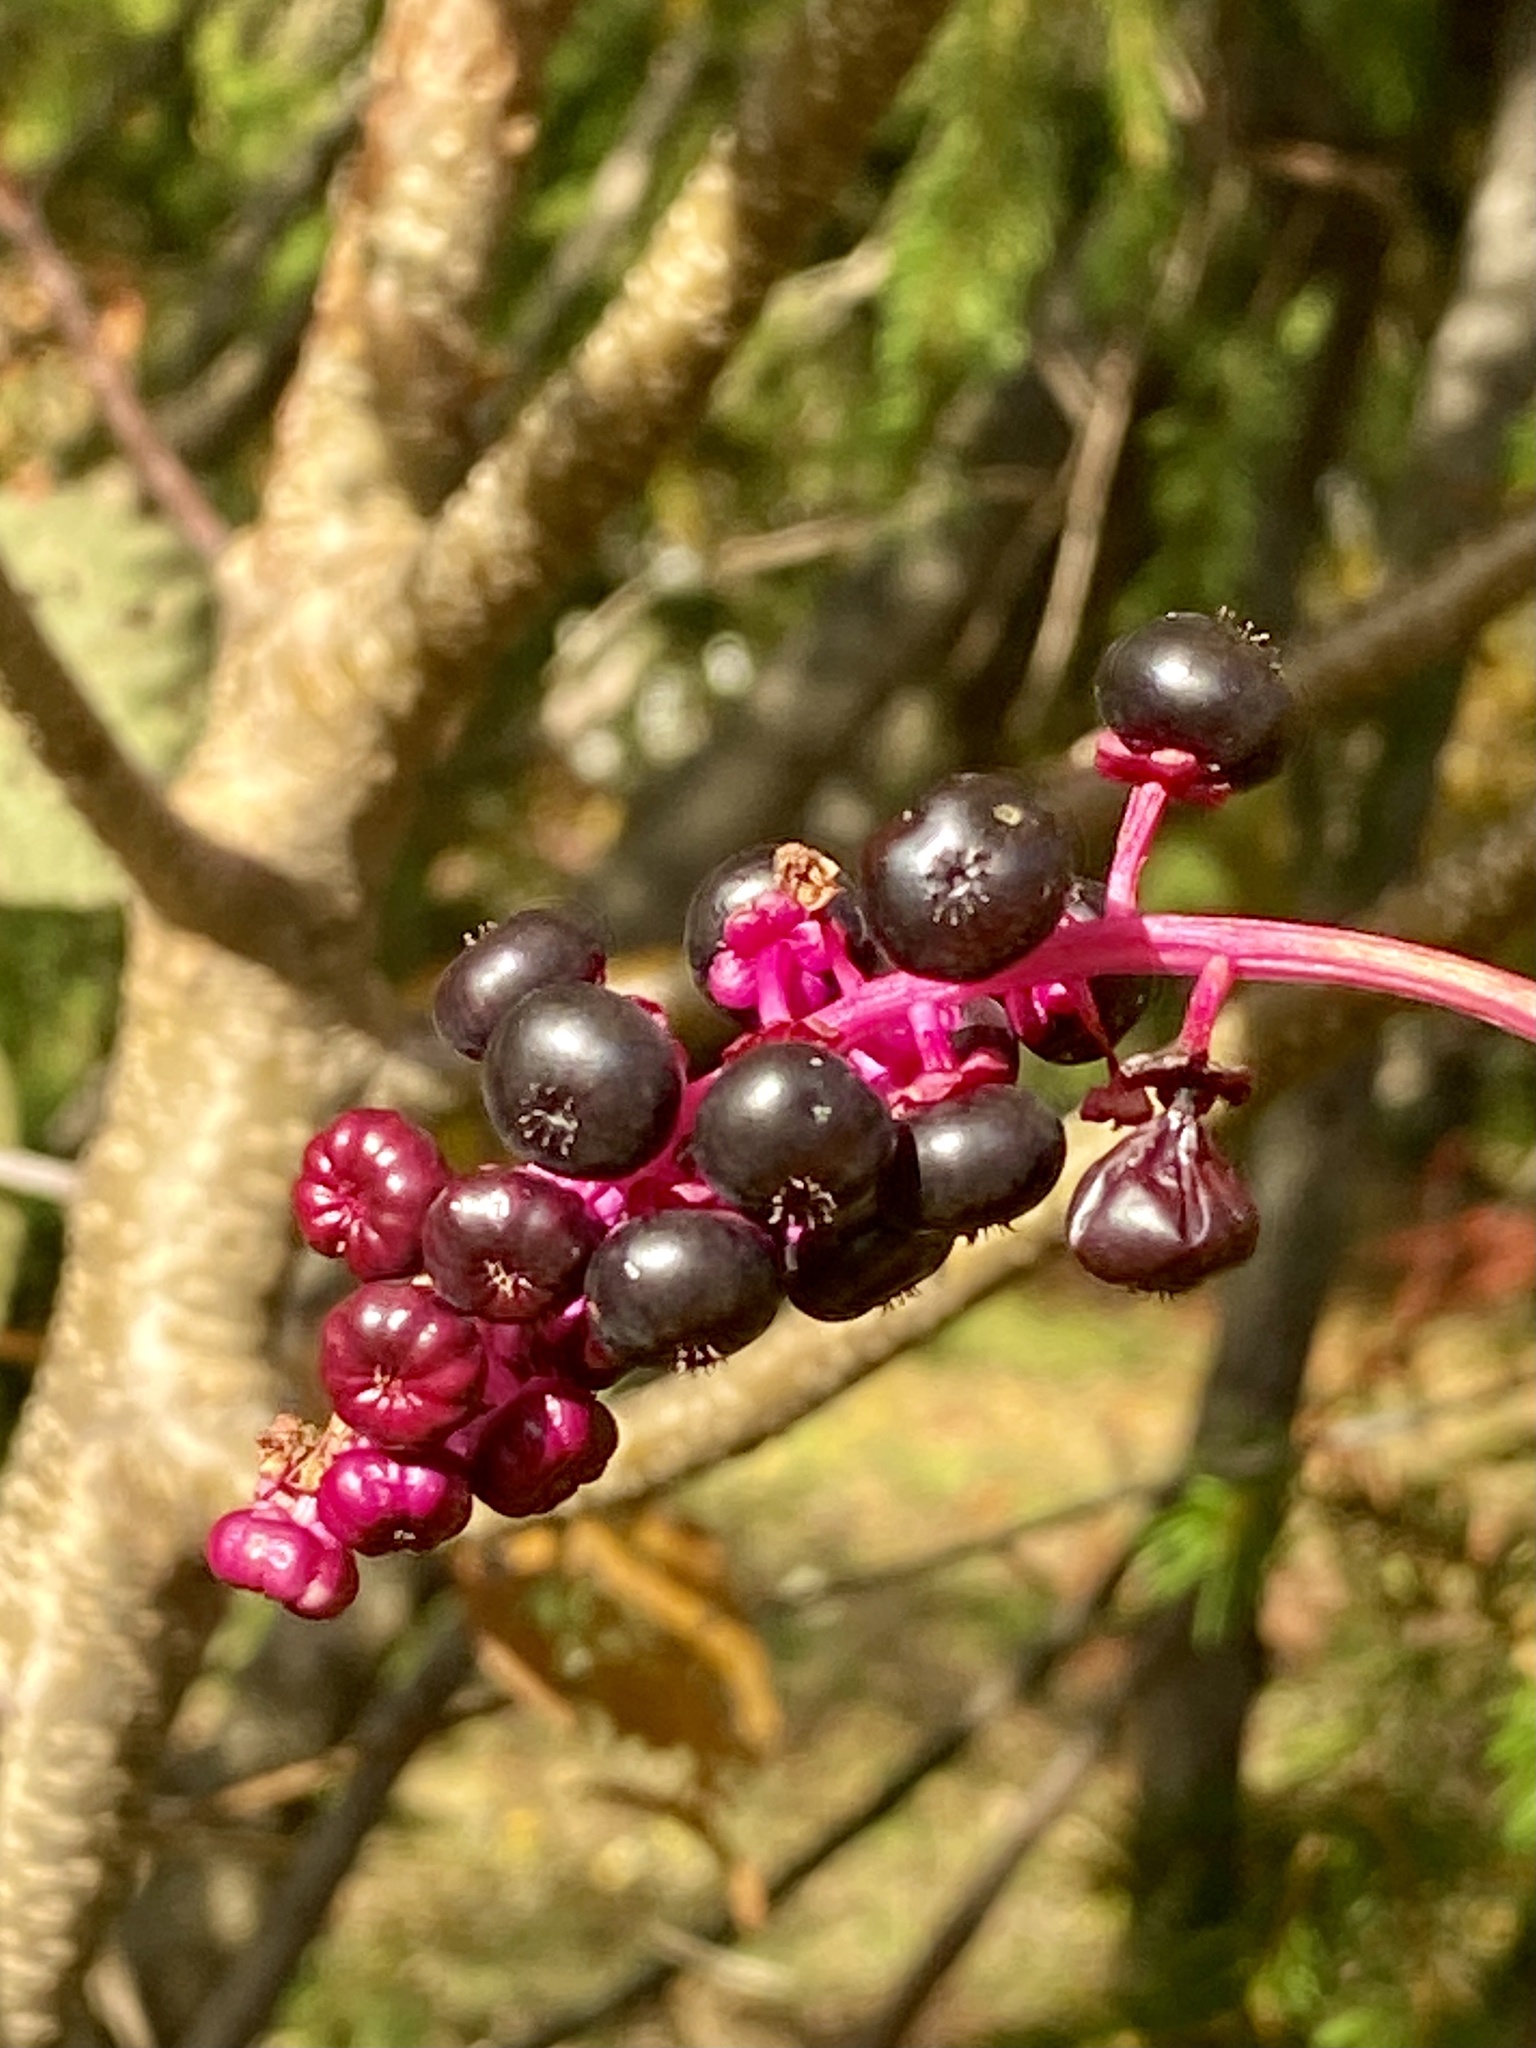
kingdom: Plantae
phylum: Tracheophyta
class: Magnoliopsida
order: Caryophyllales
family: Phytolaccaceae
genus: Phytolacca
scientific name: Phytolacca americana
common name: American pokeweed
